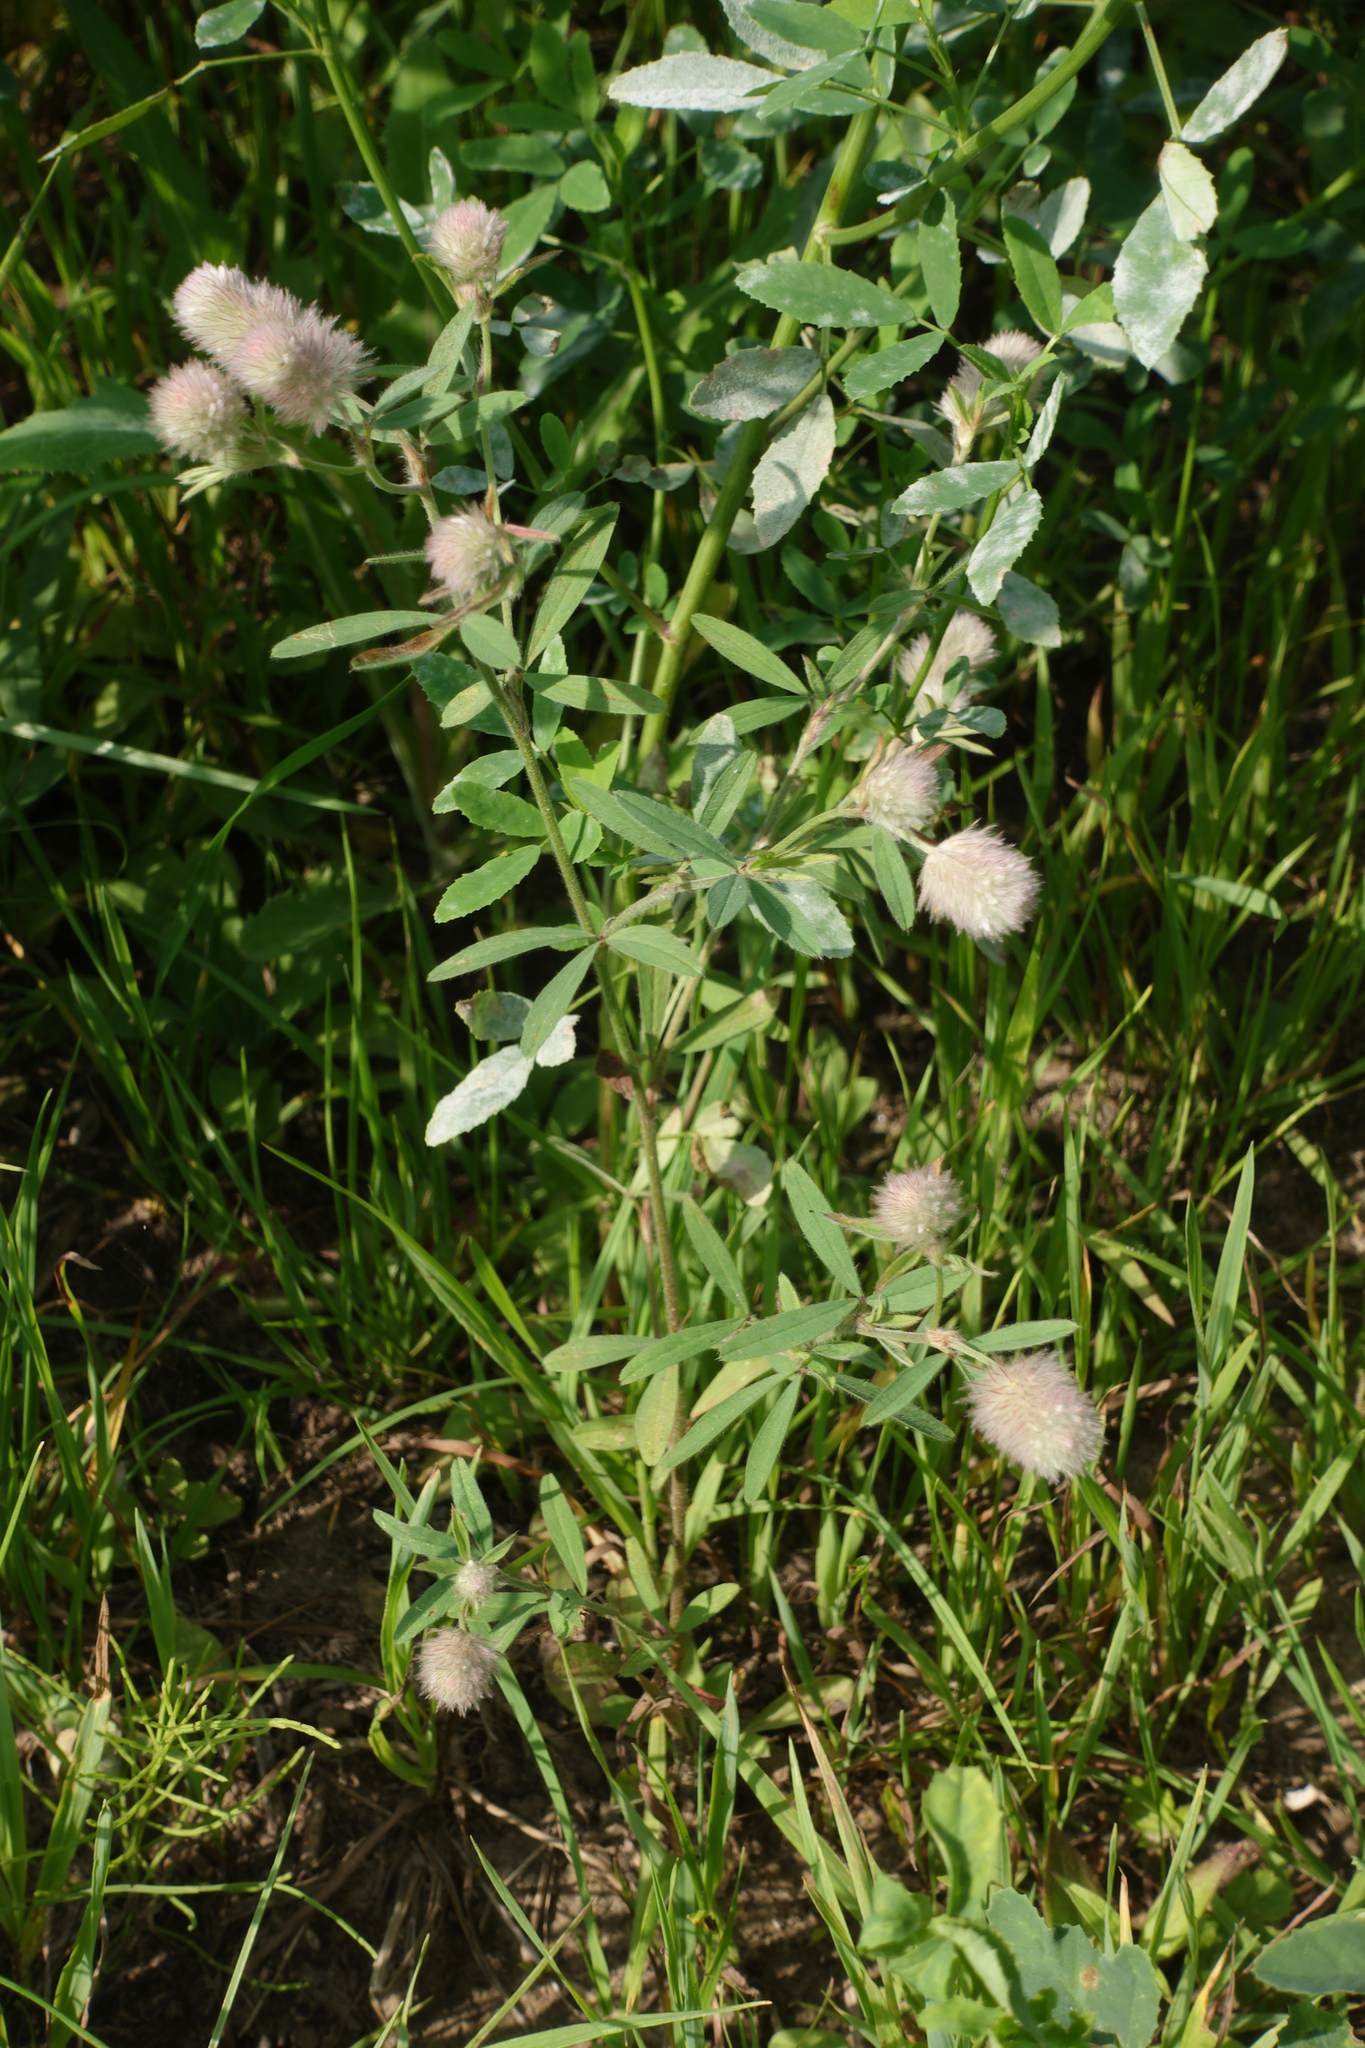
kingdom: Plantae
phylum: Tracheophyta
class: Magnoliopsida
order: Fabales
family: Fabaceae
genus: Trifolium
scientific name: Trifolium arvense
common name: Hare's-foot clover
